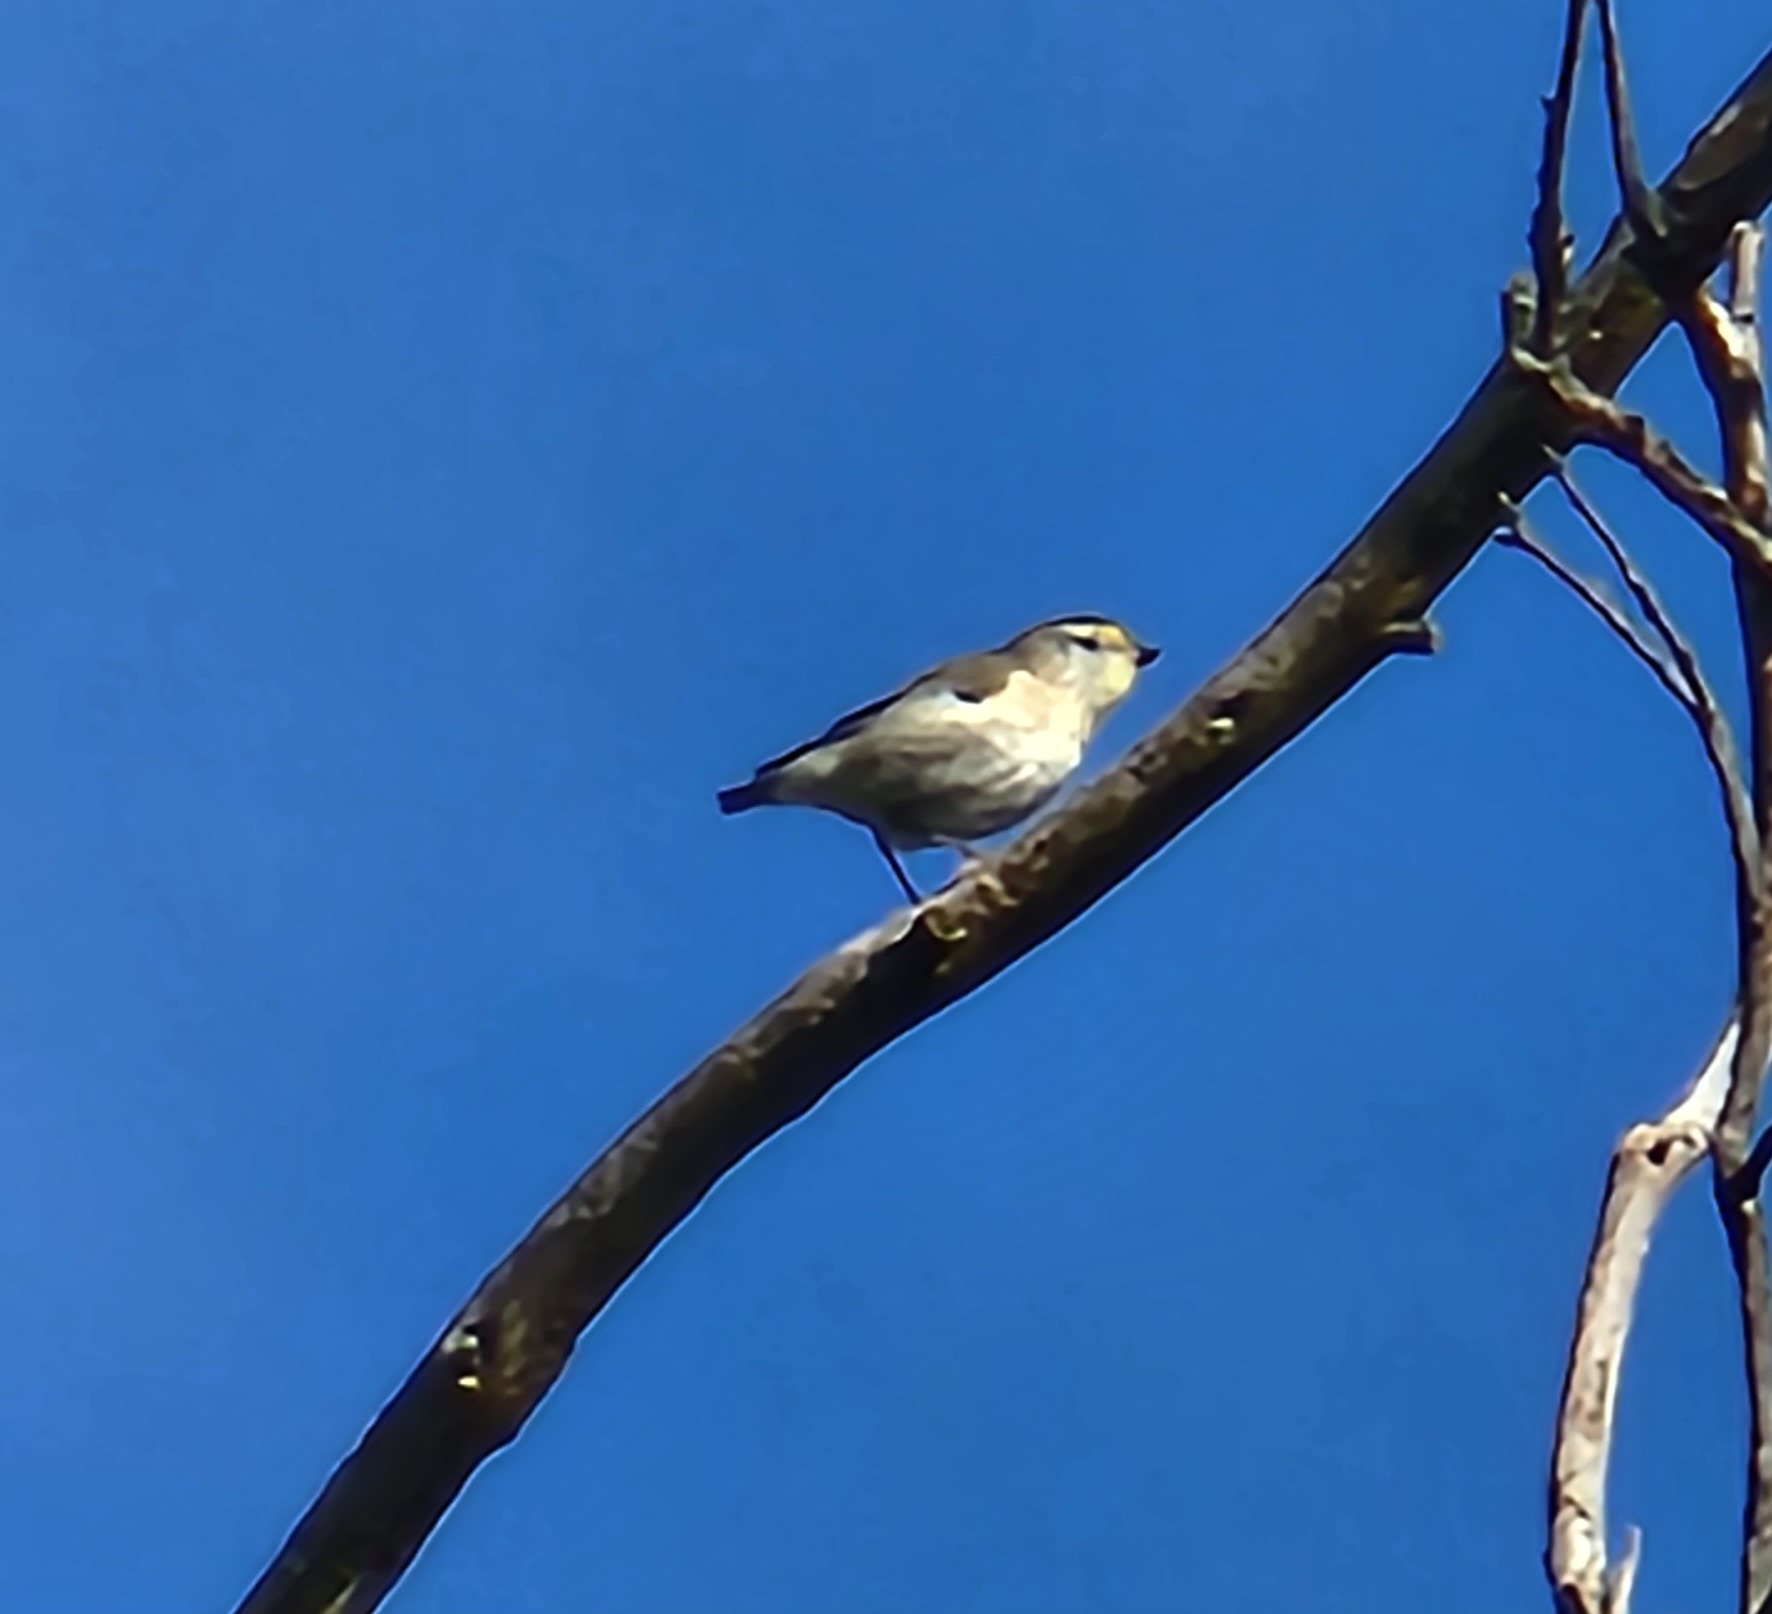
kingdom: Animalia
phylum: Chordata
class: Aves
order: Passeriformes
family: Pardalotidae
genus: Pardalotus
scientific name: Pardalotus striatus
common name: Striated pardalote
